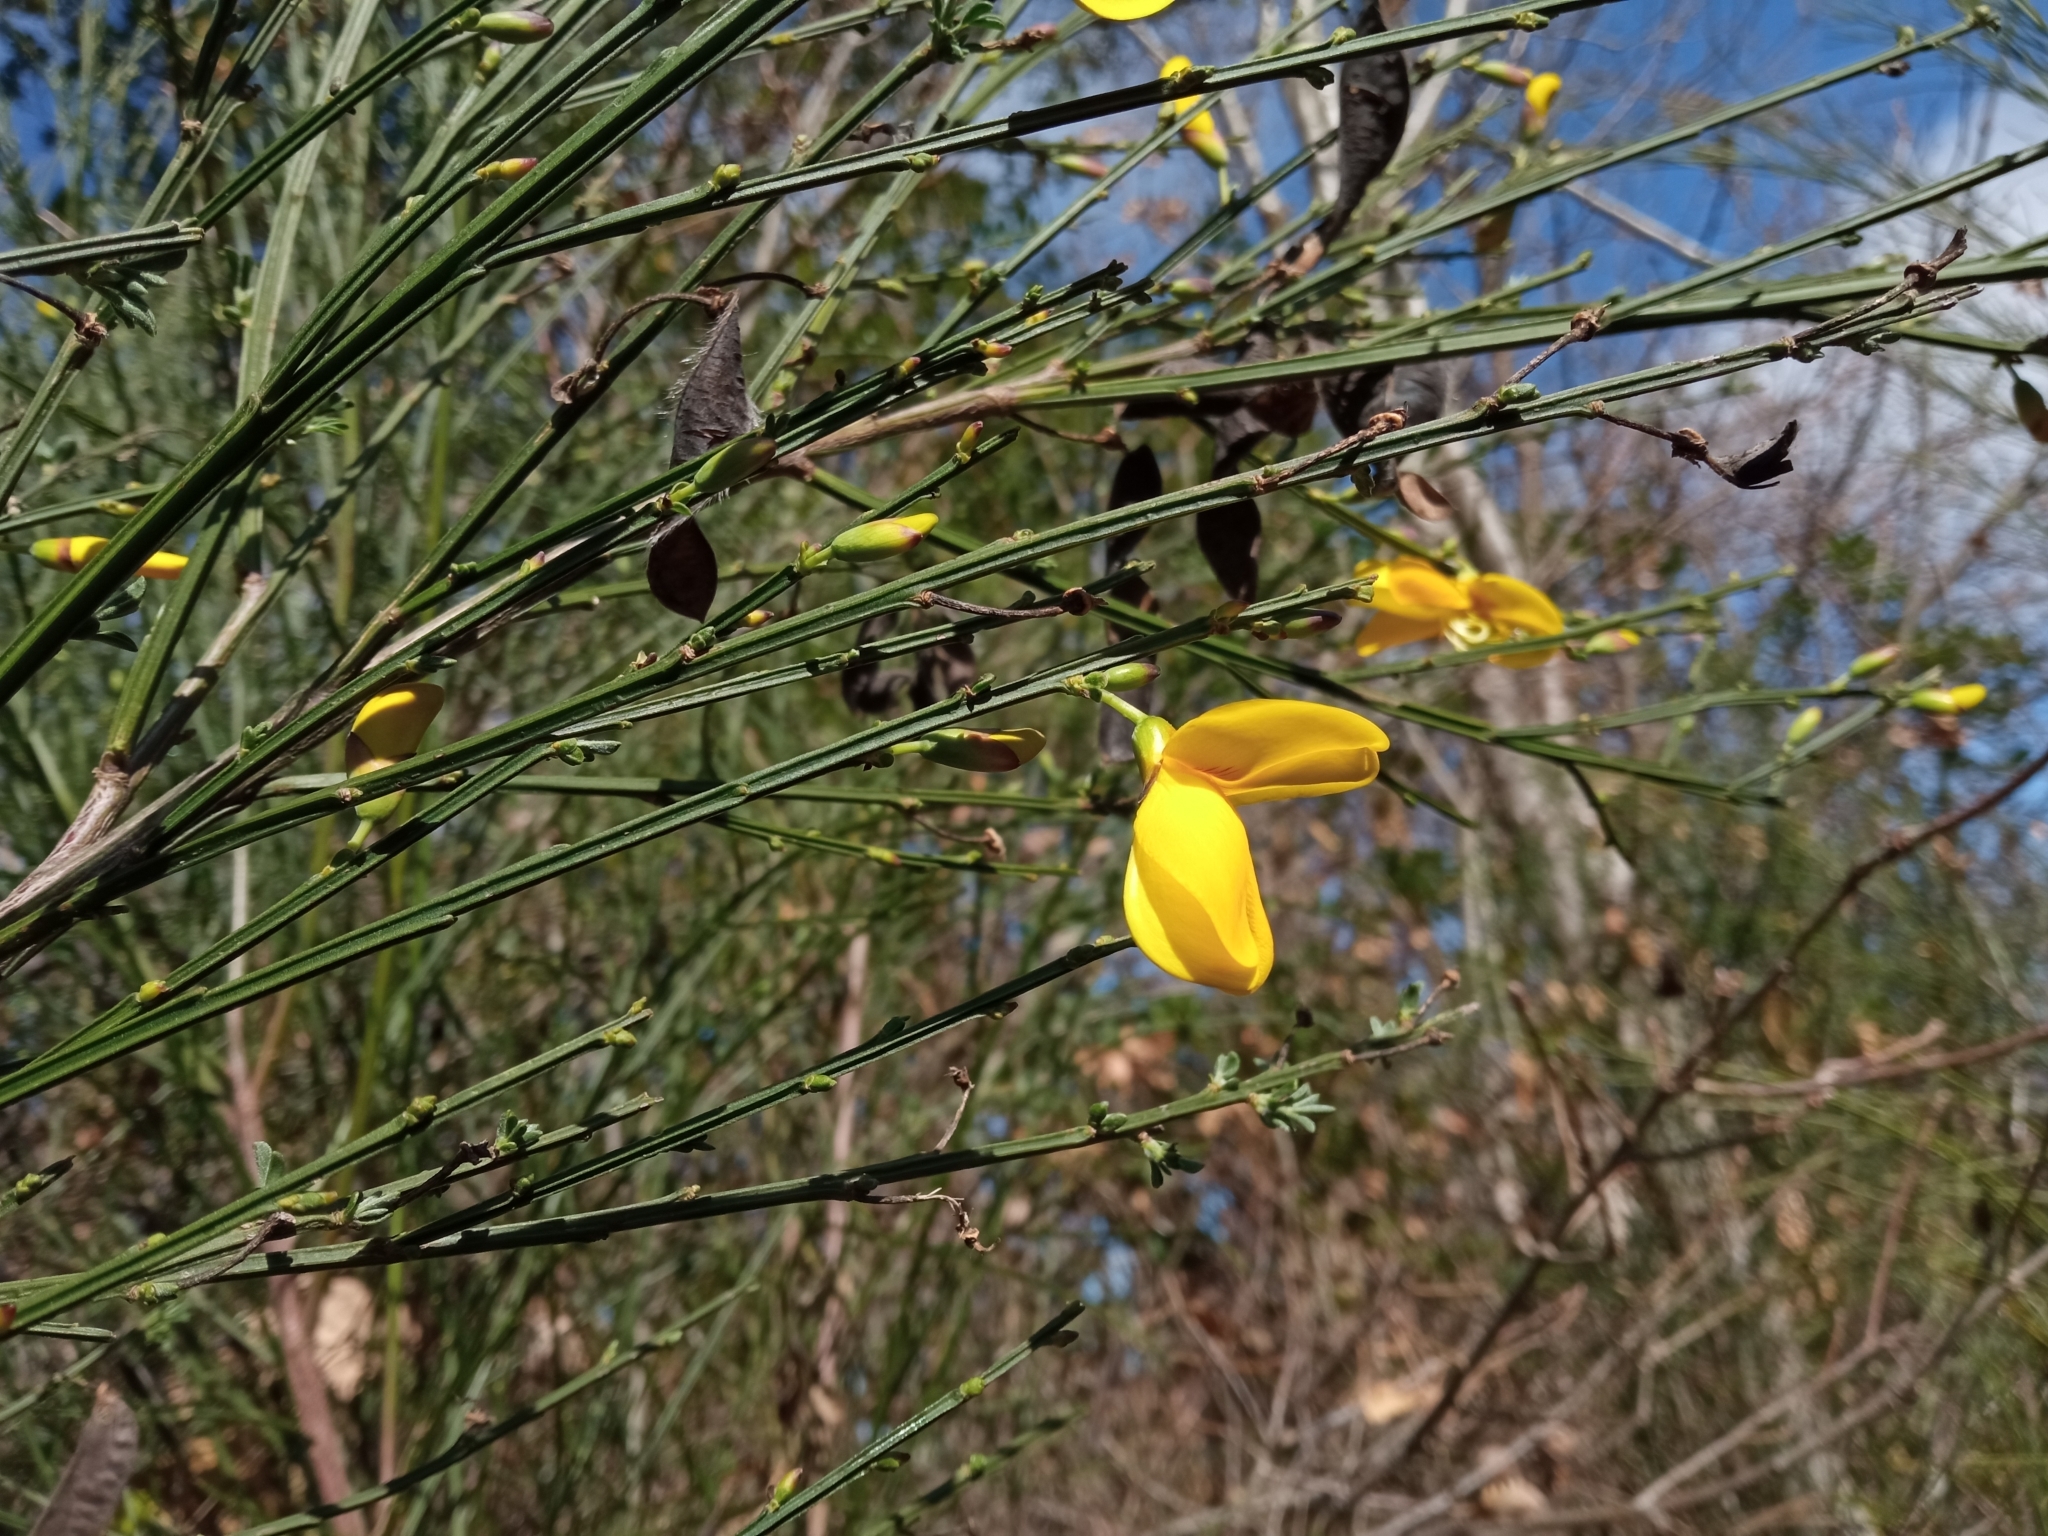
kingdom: Plantae
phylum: Tracheophyta
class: Magnoliopsida
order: Fabales
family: Fabaceae
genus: Cytisus
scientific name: Cytisus scoparius
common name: Scotch broom
